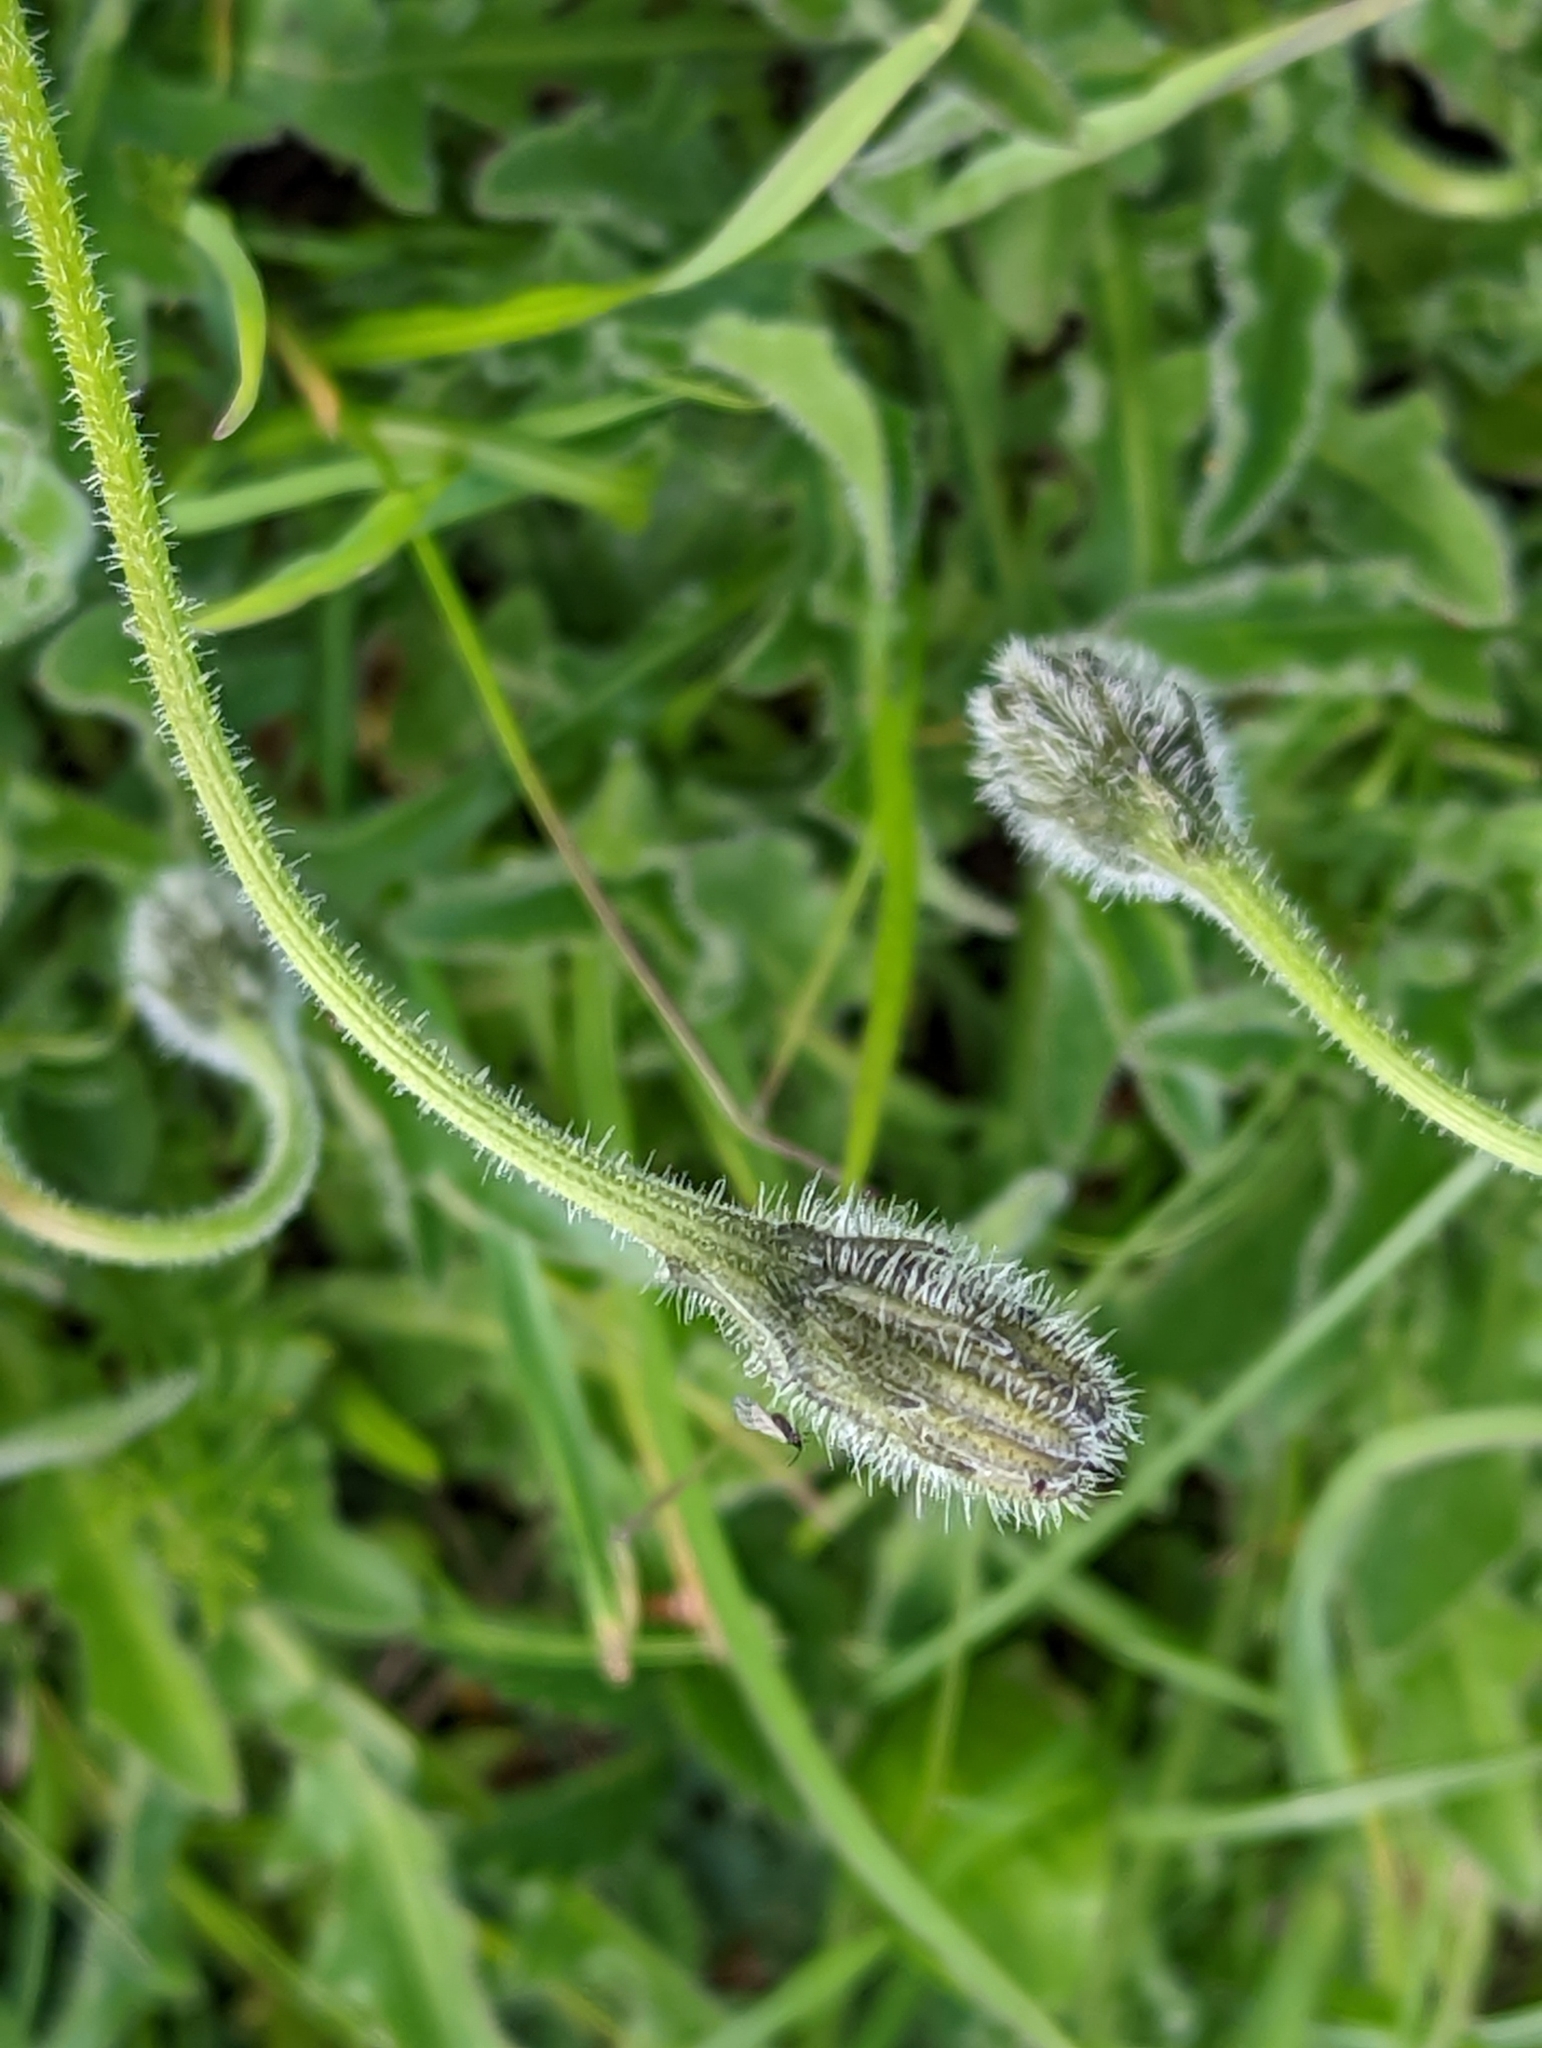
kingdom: Plantae
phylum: Tracheophyta
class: Magnoliopsida
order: Asterales
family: Asteraceae
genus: Leontodon
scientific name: Leontodon hispidus
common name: Rough hawkbit
